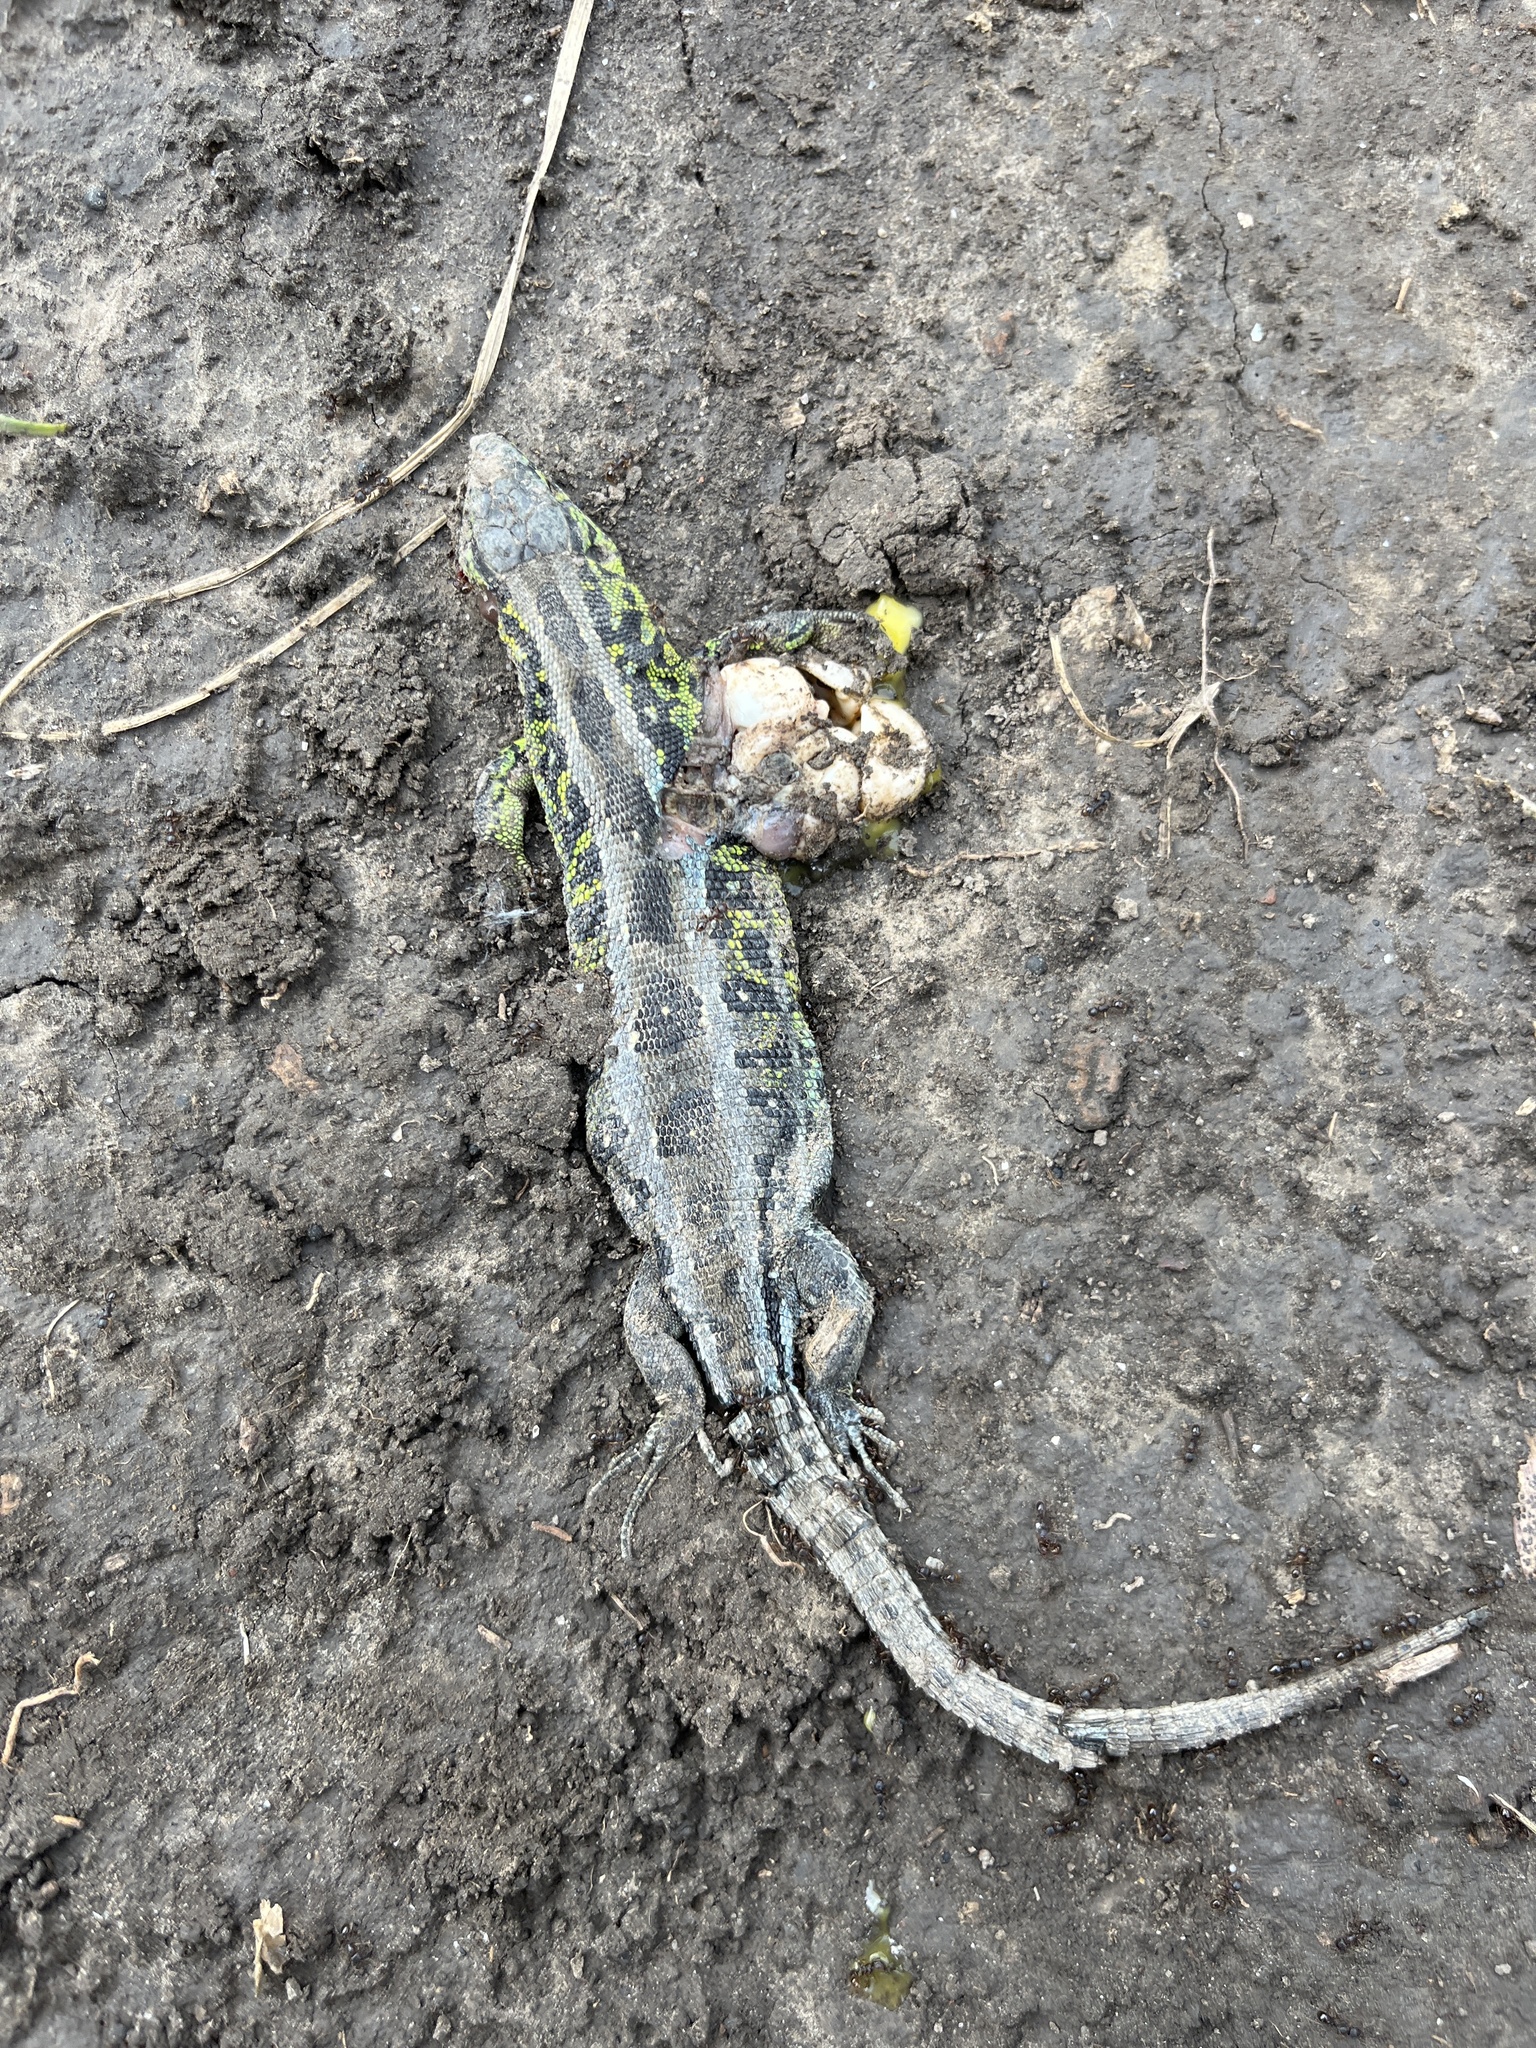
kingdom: Animalia
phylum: Chordata
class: Squamata
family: Lacertidae
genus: Lacerta
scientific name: Lacerta agilis
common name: Sand lizard
